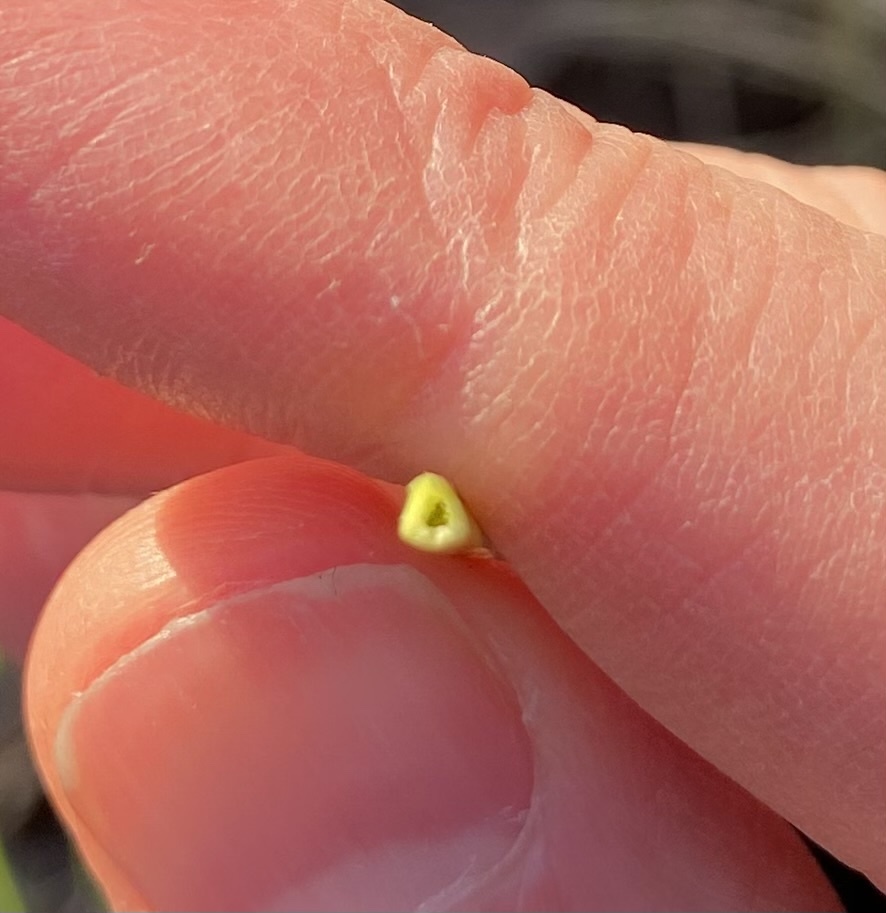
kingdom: Plantae
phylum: Tracheophyta
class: Liliopsida
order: Poales
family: Cyperaceae
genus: Carex
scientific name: Carex hirta
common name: Hairy sedge
